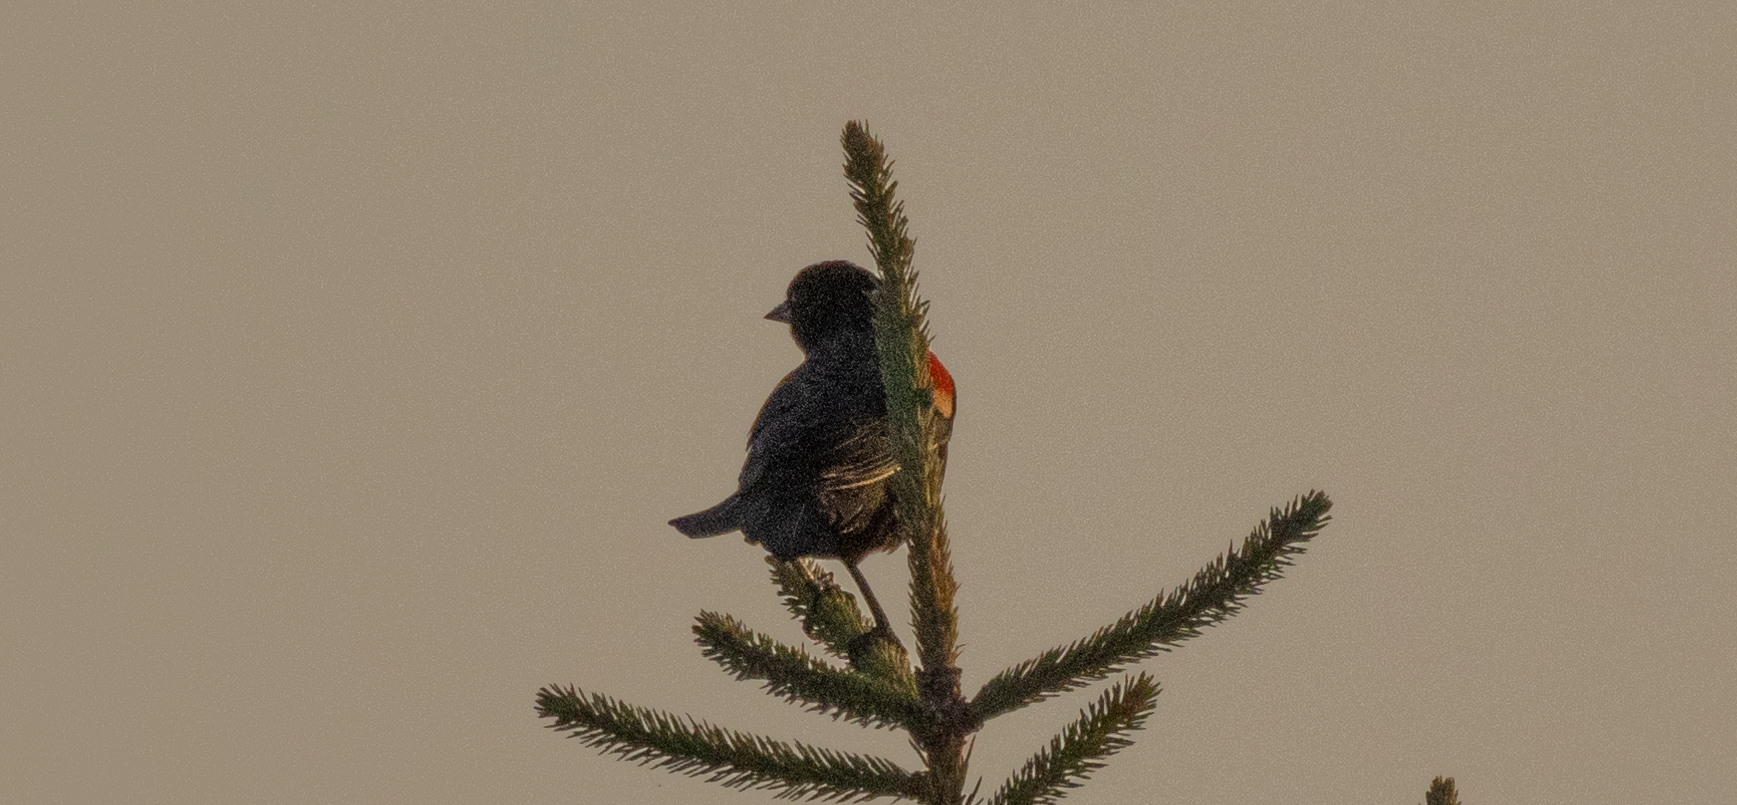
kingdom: Animalia
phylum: Chordata
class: Aves
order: Passeriformes
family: Icteridae
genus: Agelaius
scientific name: Agelaius phoeniceus
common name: Red-winged blackbird
